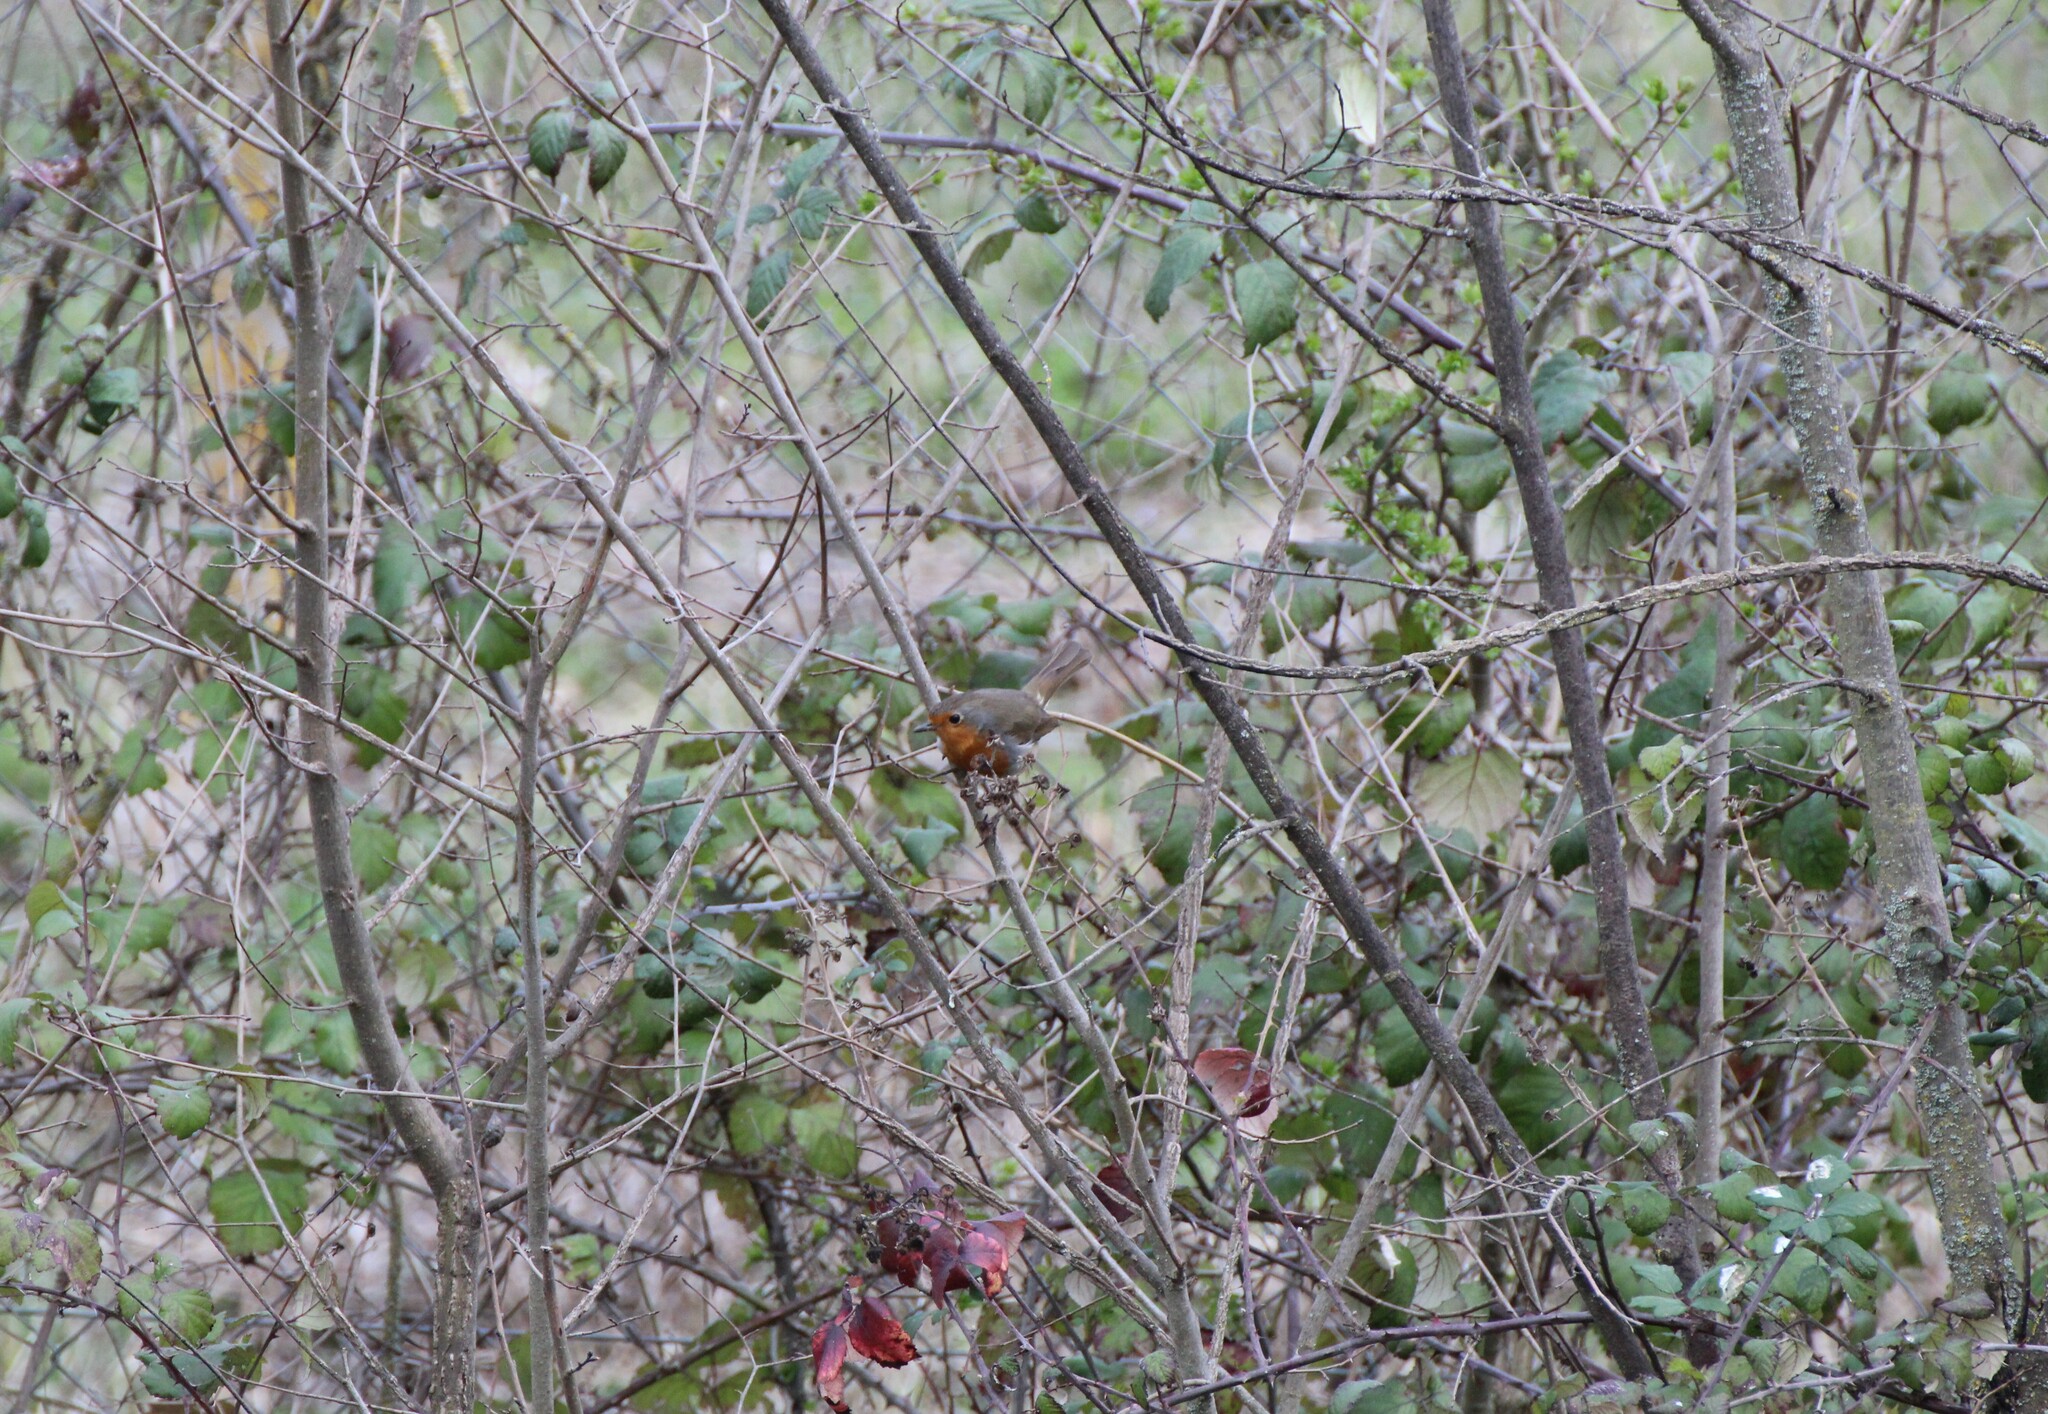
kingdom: Animalia
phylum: Chordata
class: Aves
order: Passeriformes
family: Muscicapidae
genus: Erithacus
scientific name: Erithacus rubecula
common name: European robin
